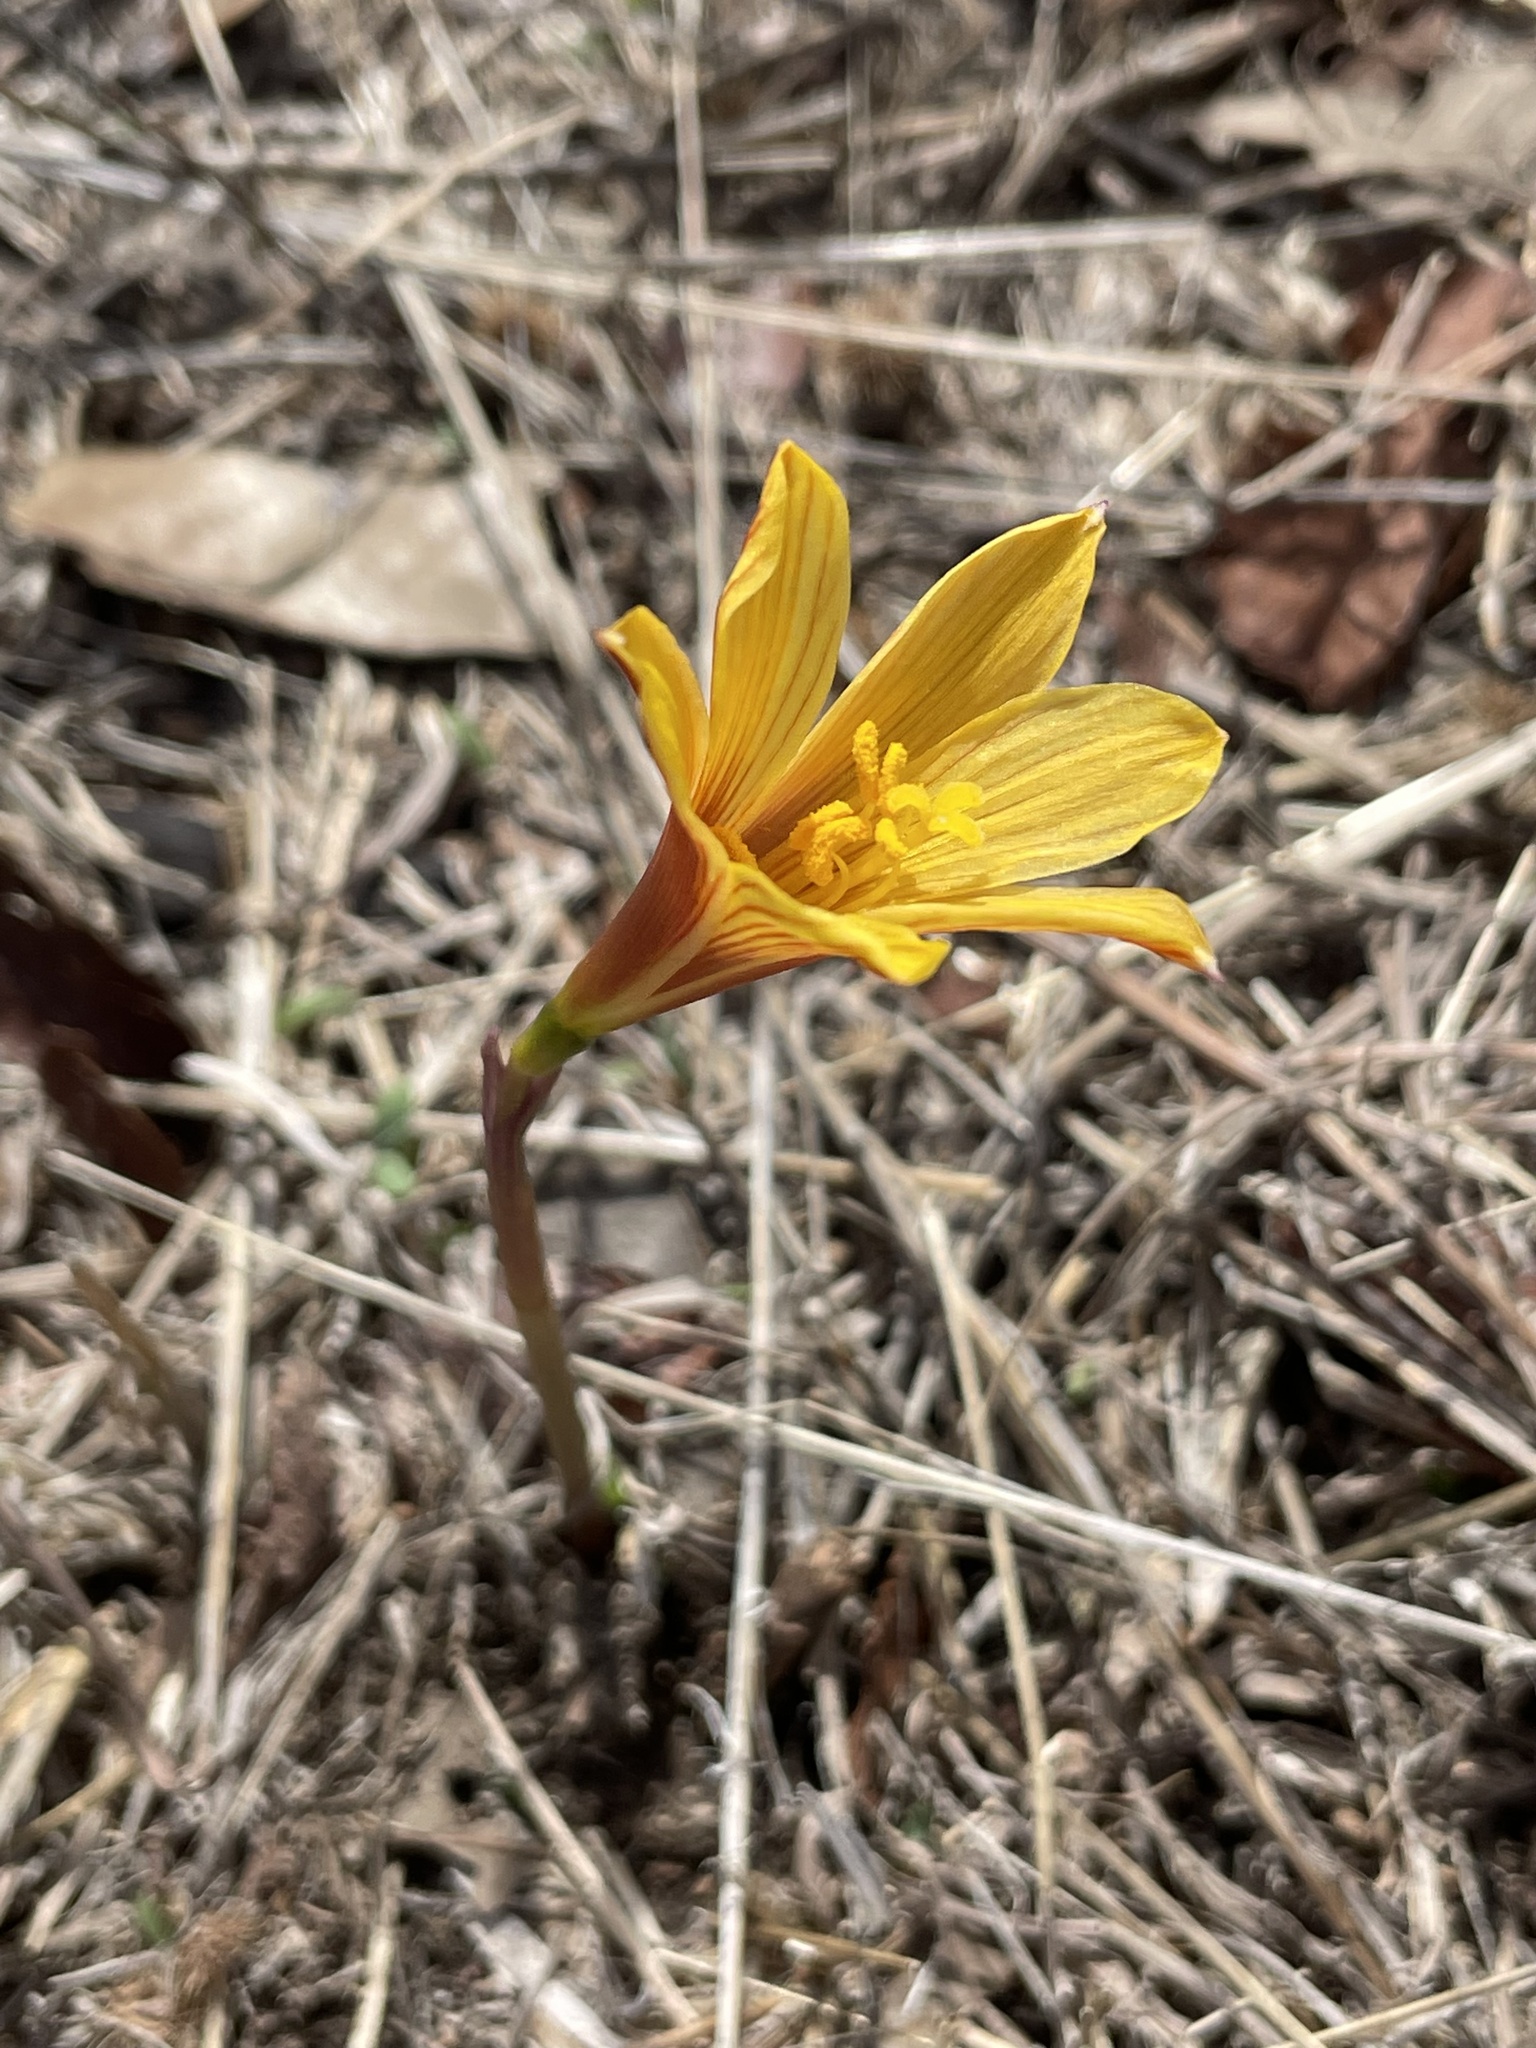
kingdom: Plantae
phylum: Tracheophyta
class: Liliopsida
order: Asparagales
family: Amaryllidaceae
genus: Zephyranthes
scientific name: Zephyranthes tubispatha
